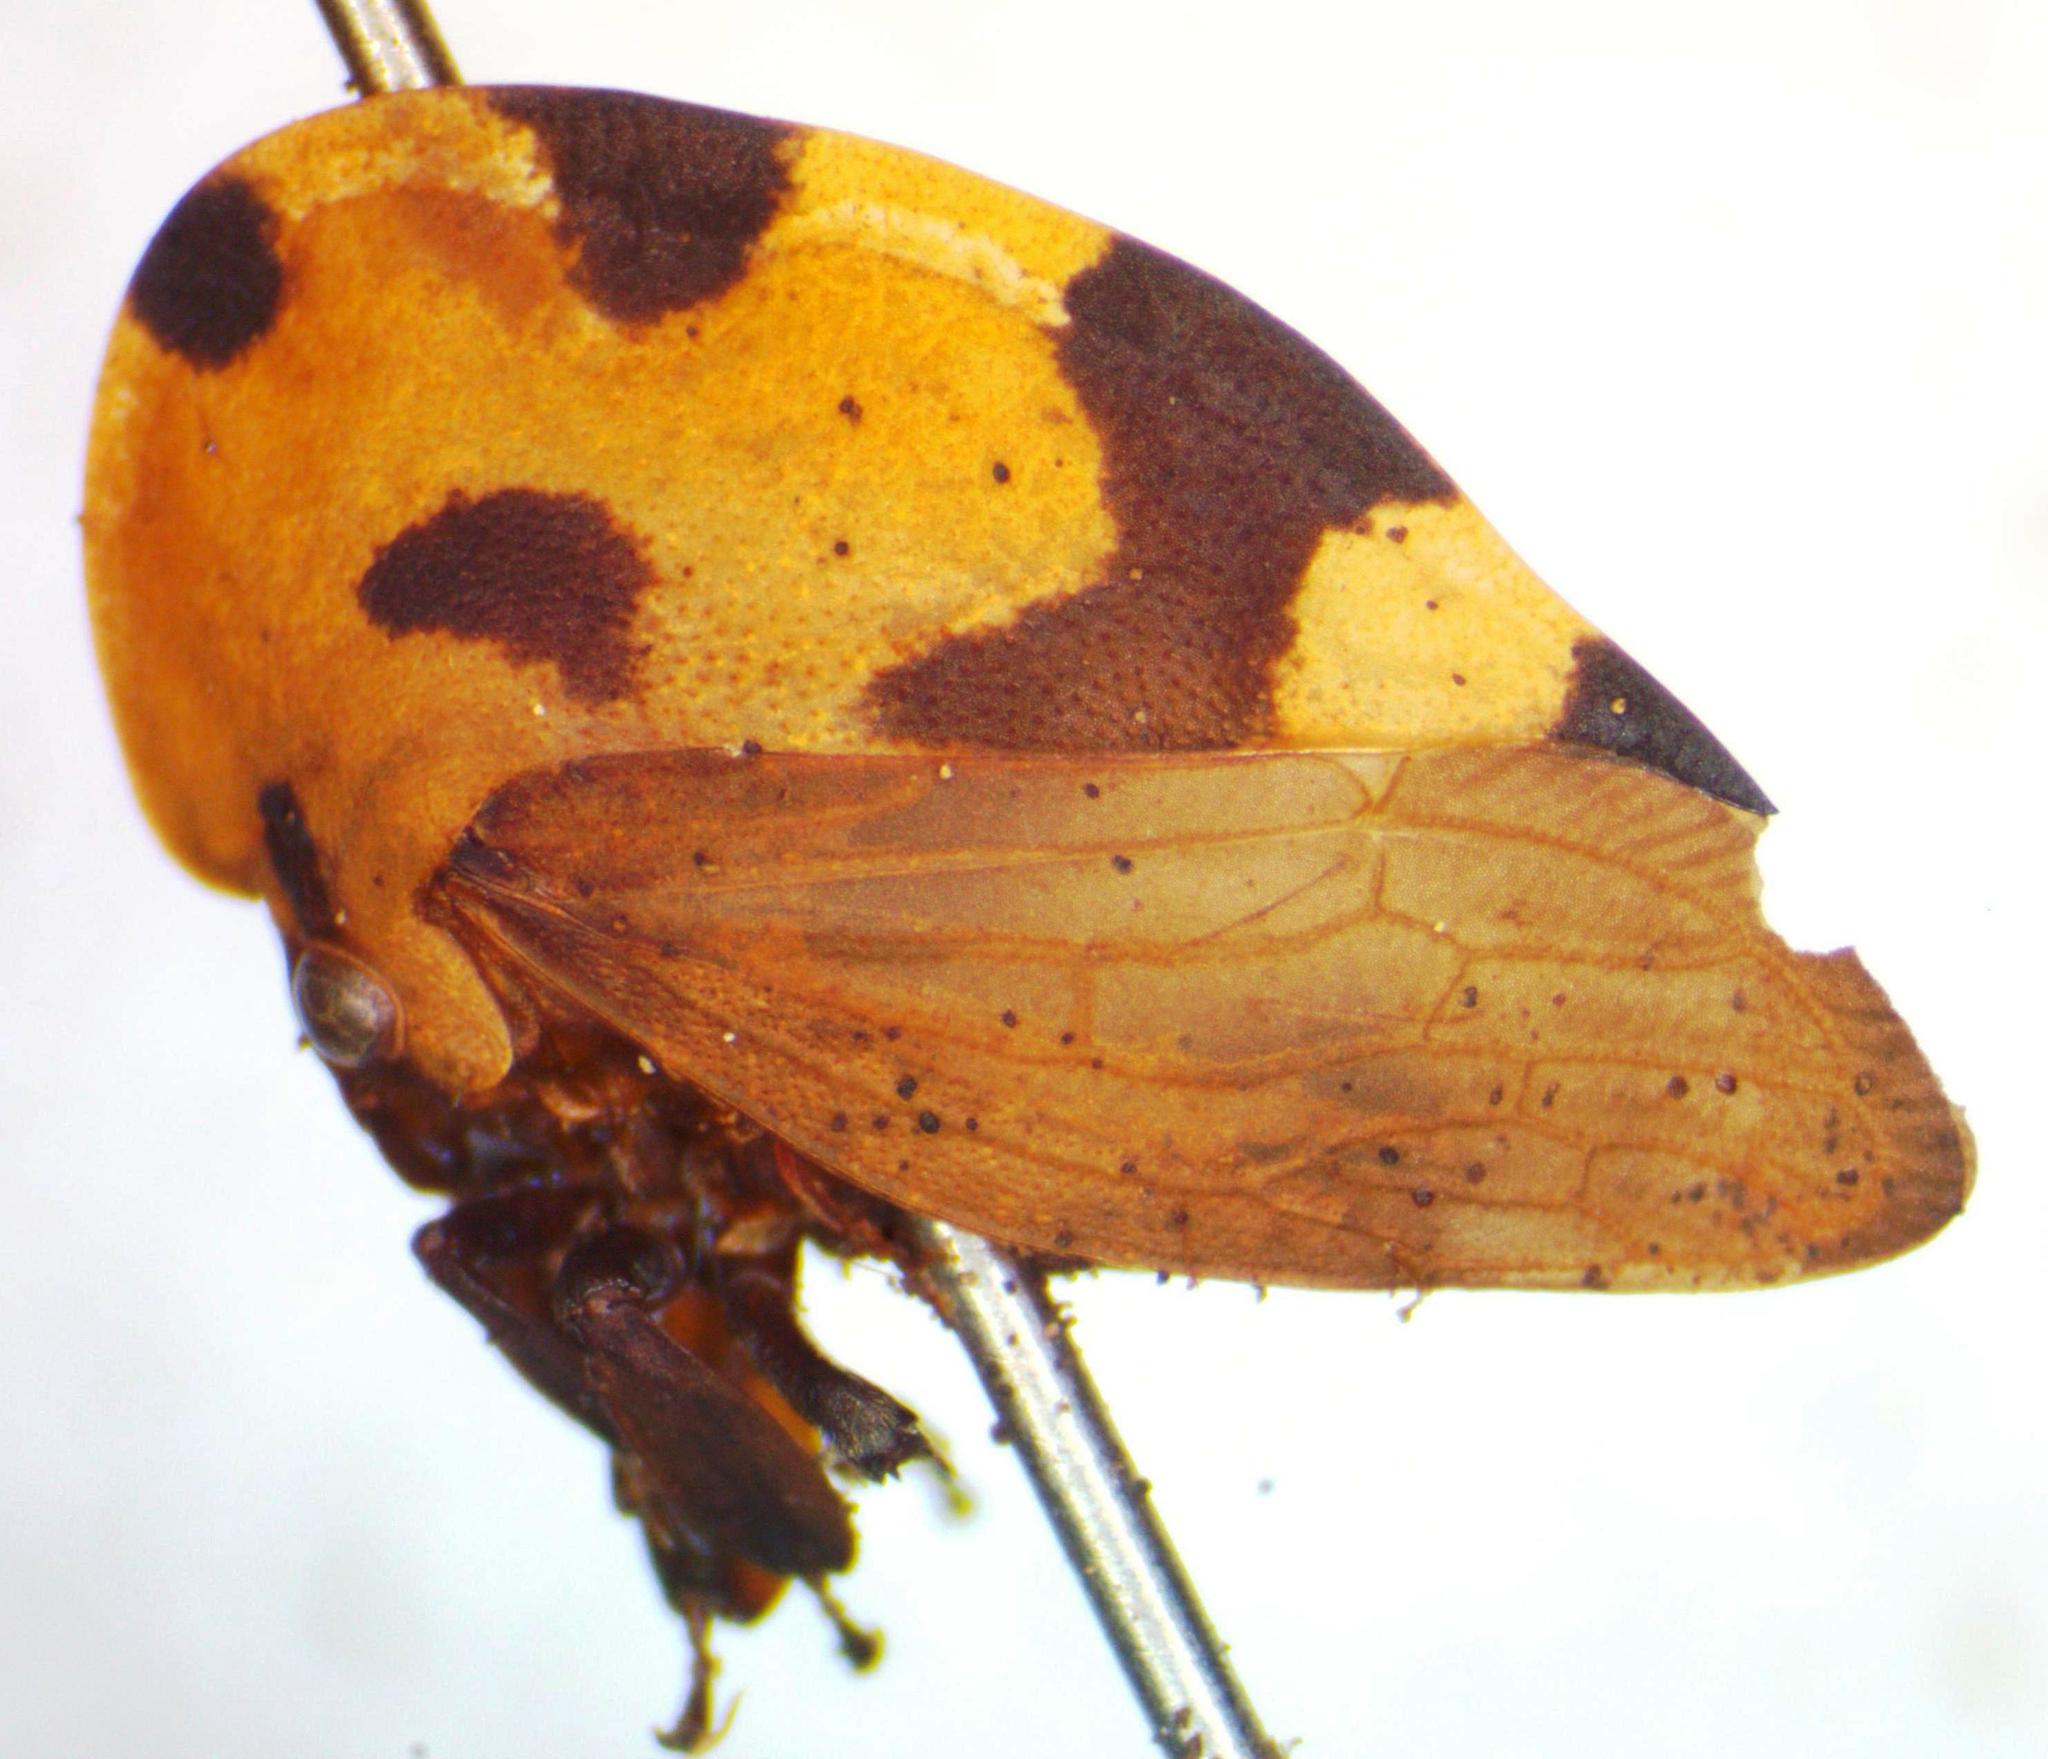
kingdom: Animalia
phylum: Arthropoda
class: Insecta
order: Hemiptera
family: Membracidae
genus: Membracis
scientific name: Membracis mexicana
